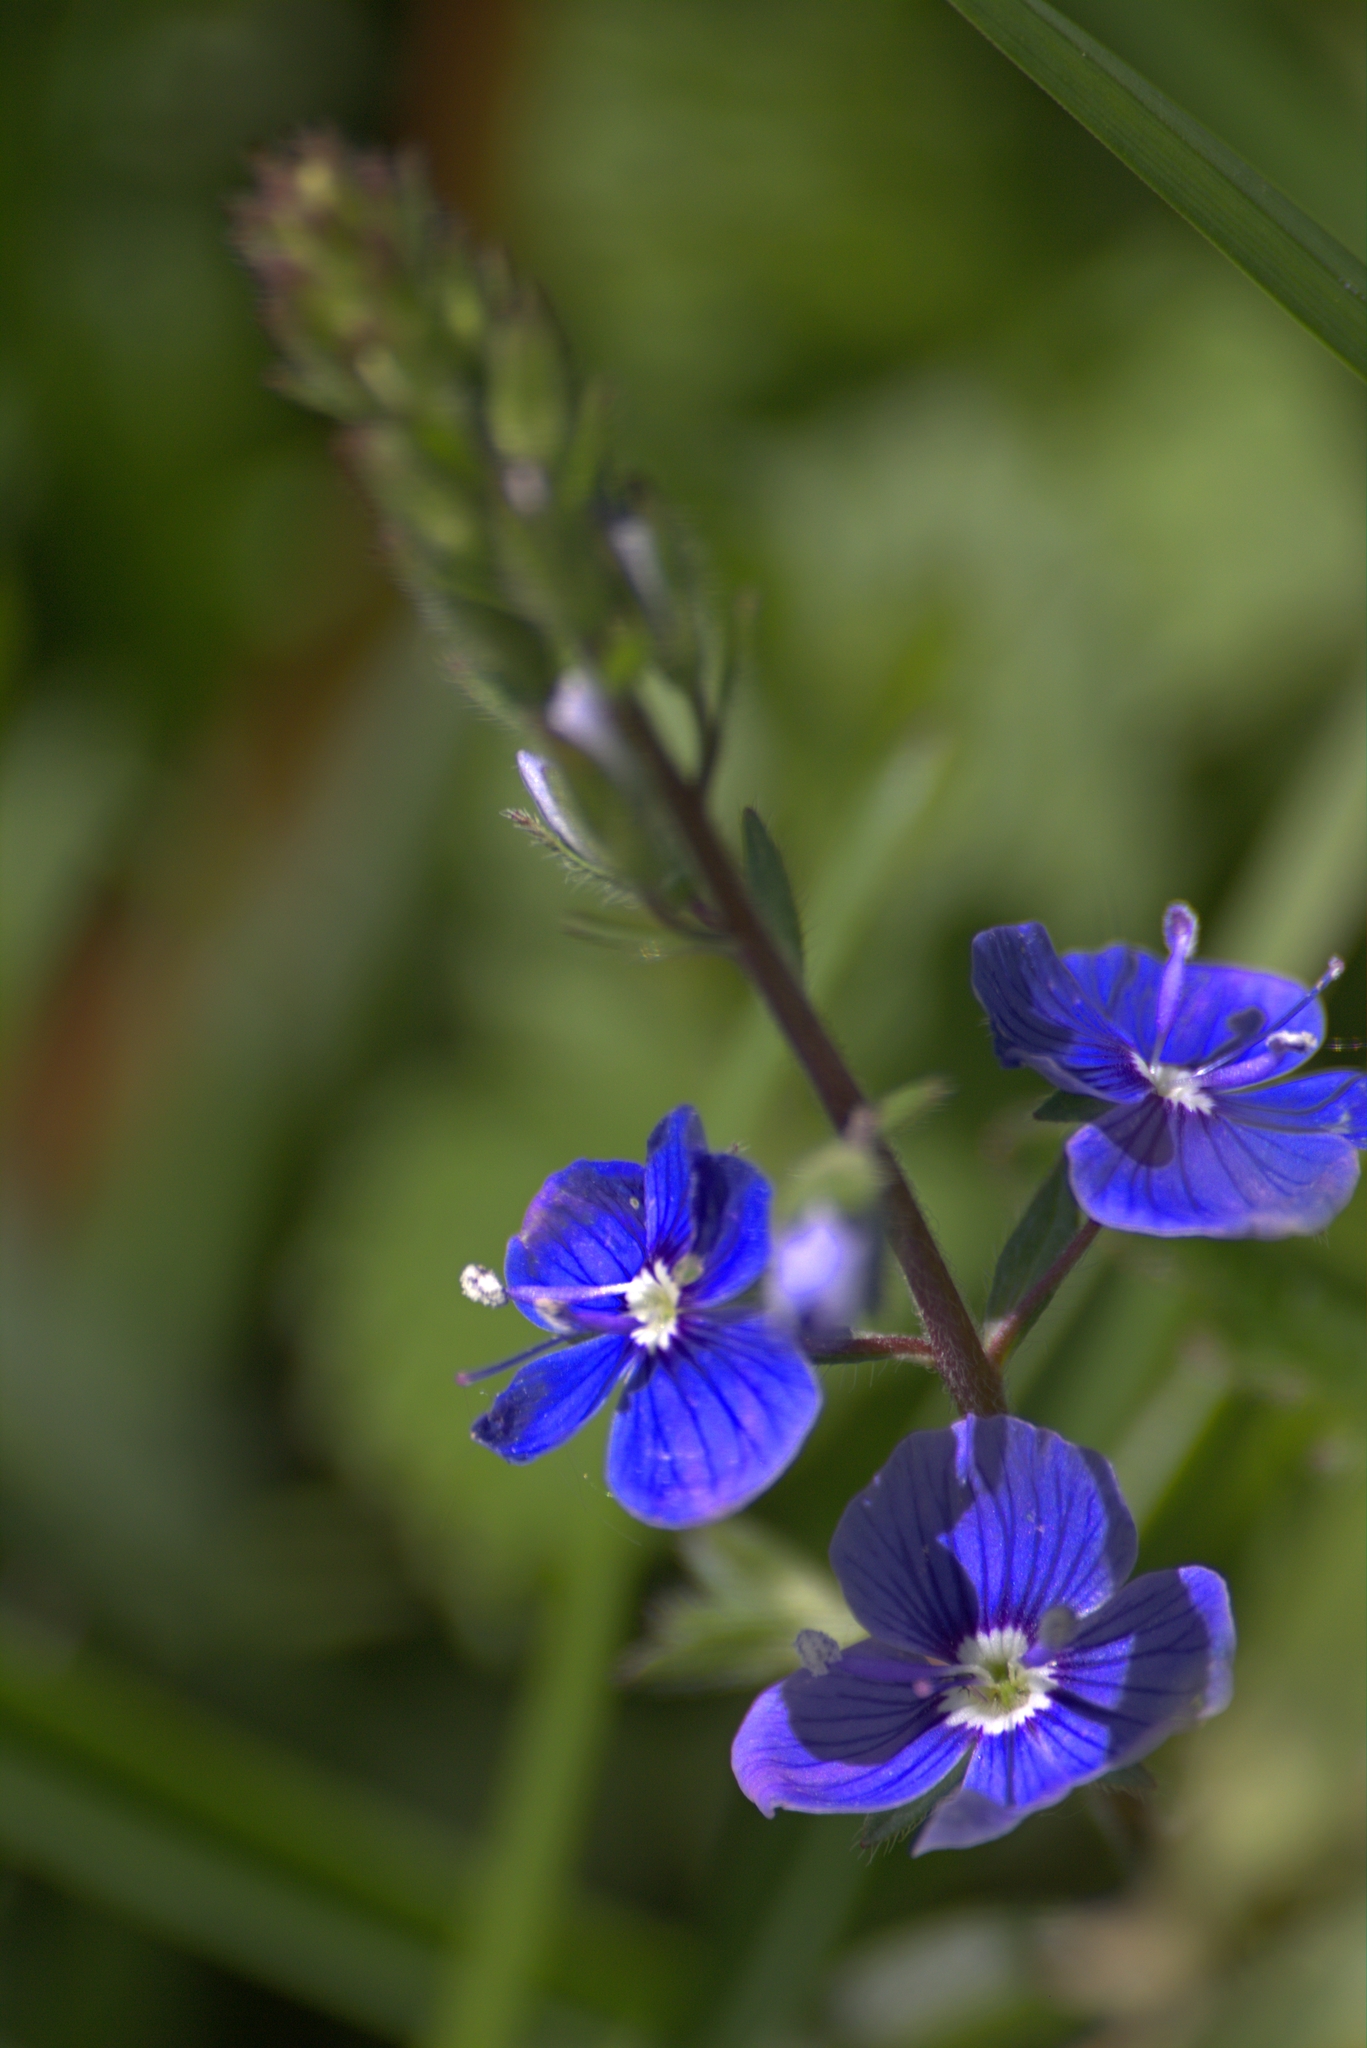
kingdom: Plantae
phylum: Tracheophyta
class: Magnoliopsida
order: Lamiales
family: Plantaginaceae
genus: Veronica
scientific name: Veronica chamaedrys
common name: Germander speedwell
